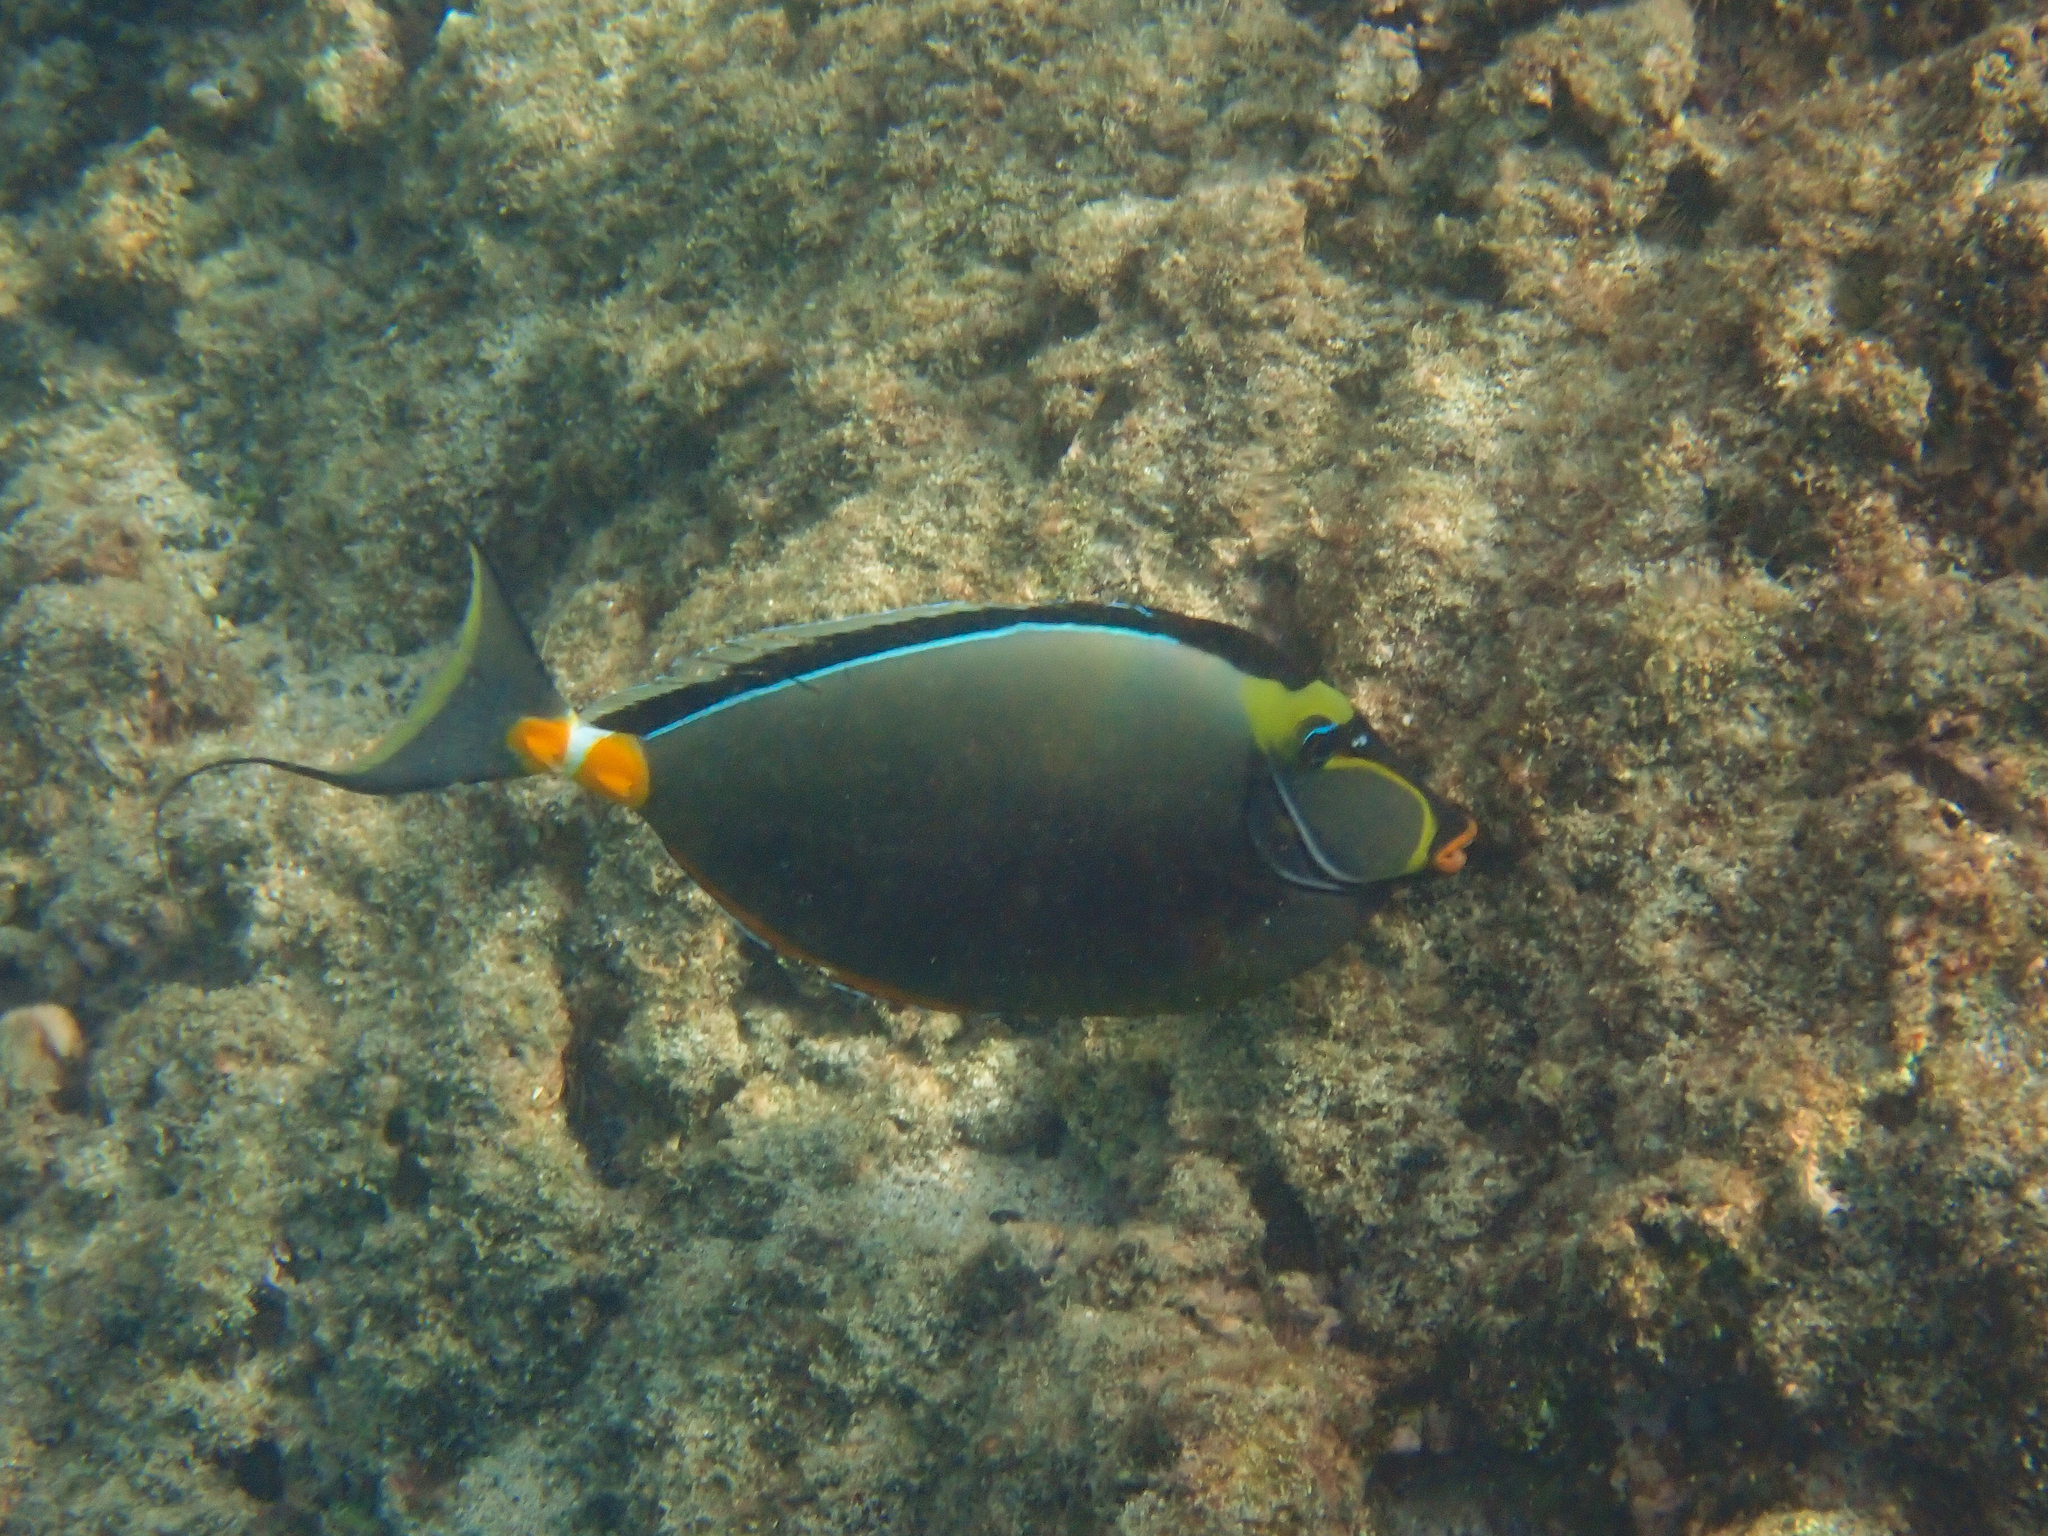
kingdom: Animalia
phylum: Chordata
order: Perciformes
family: Acanthuridae
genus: Naso
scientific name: Naso lituratus
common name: Orangespine unicornfish
